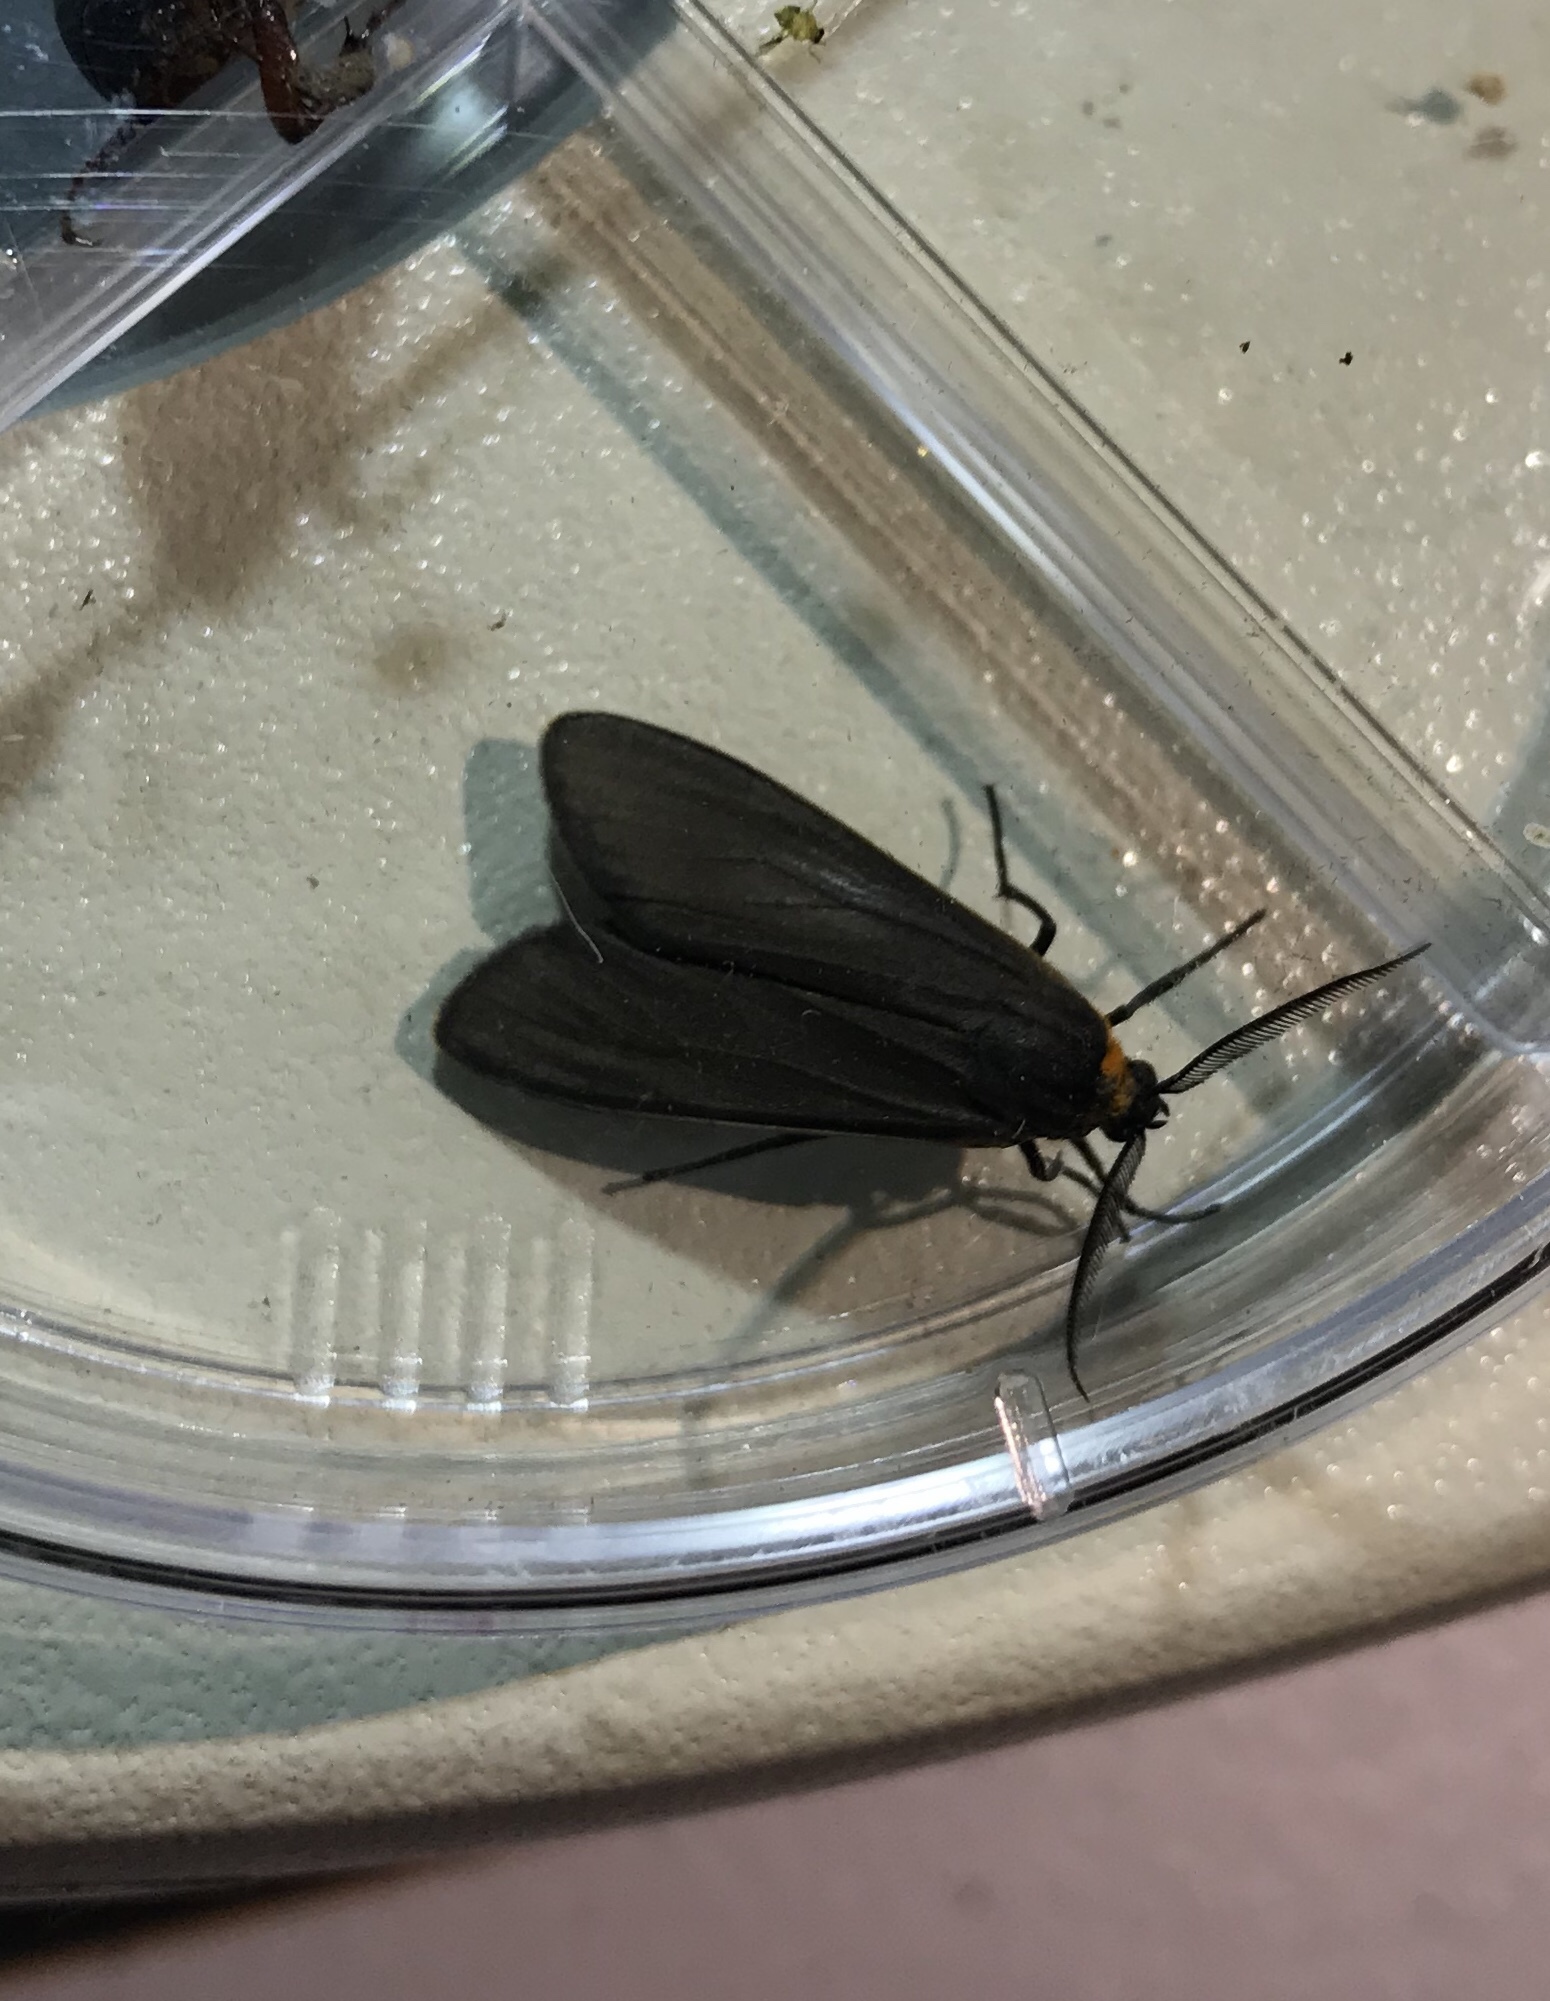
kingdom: Animalia
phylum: Arthropoda
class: Insecta
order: Lepidoptera
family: Erebidae
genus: Cisseps
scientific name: Cisseps fulvicollis
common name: Yellow-collared scape moth
